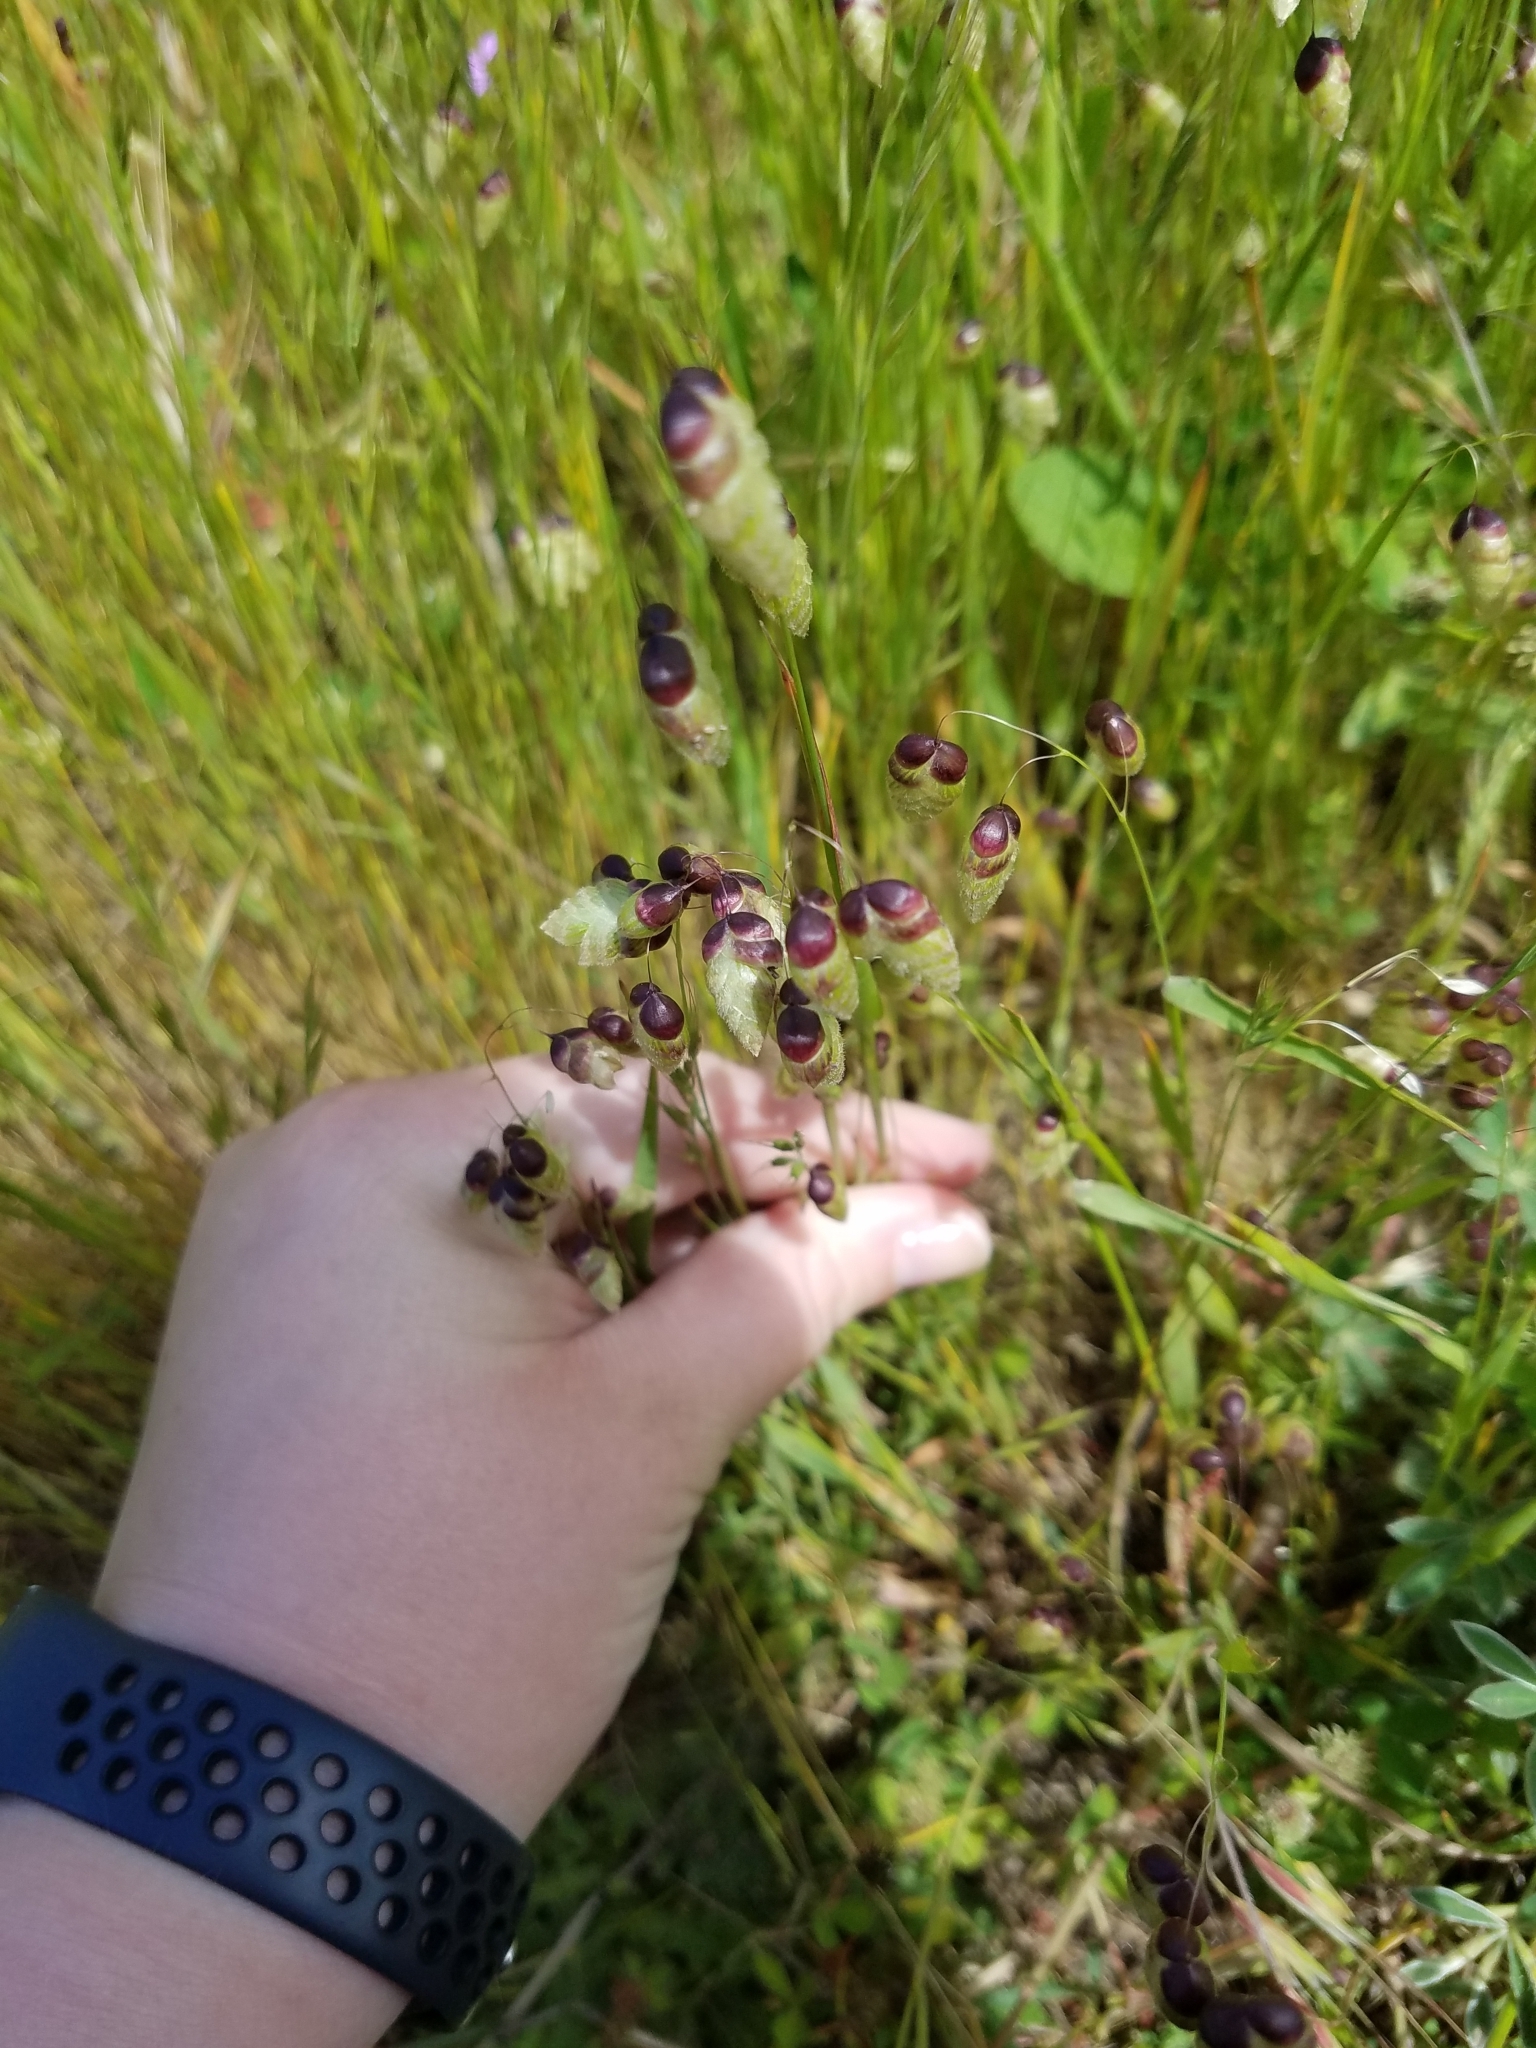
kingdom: Plantae
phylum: Tracheophyta
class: Liliopsida
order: Poales
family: Poaceae
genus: Briza
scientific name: Briza maxima
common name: Big quakinggrass
